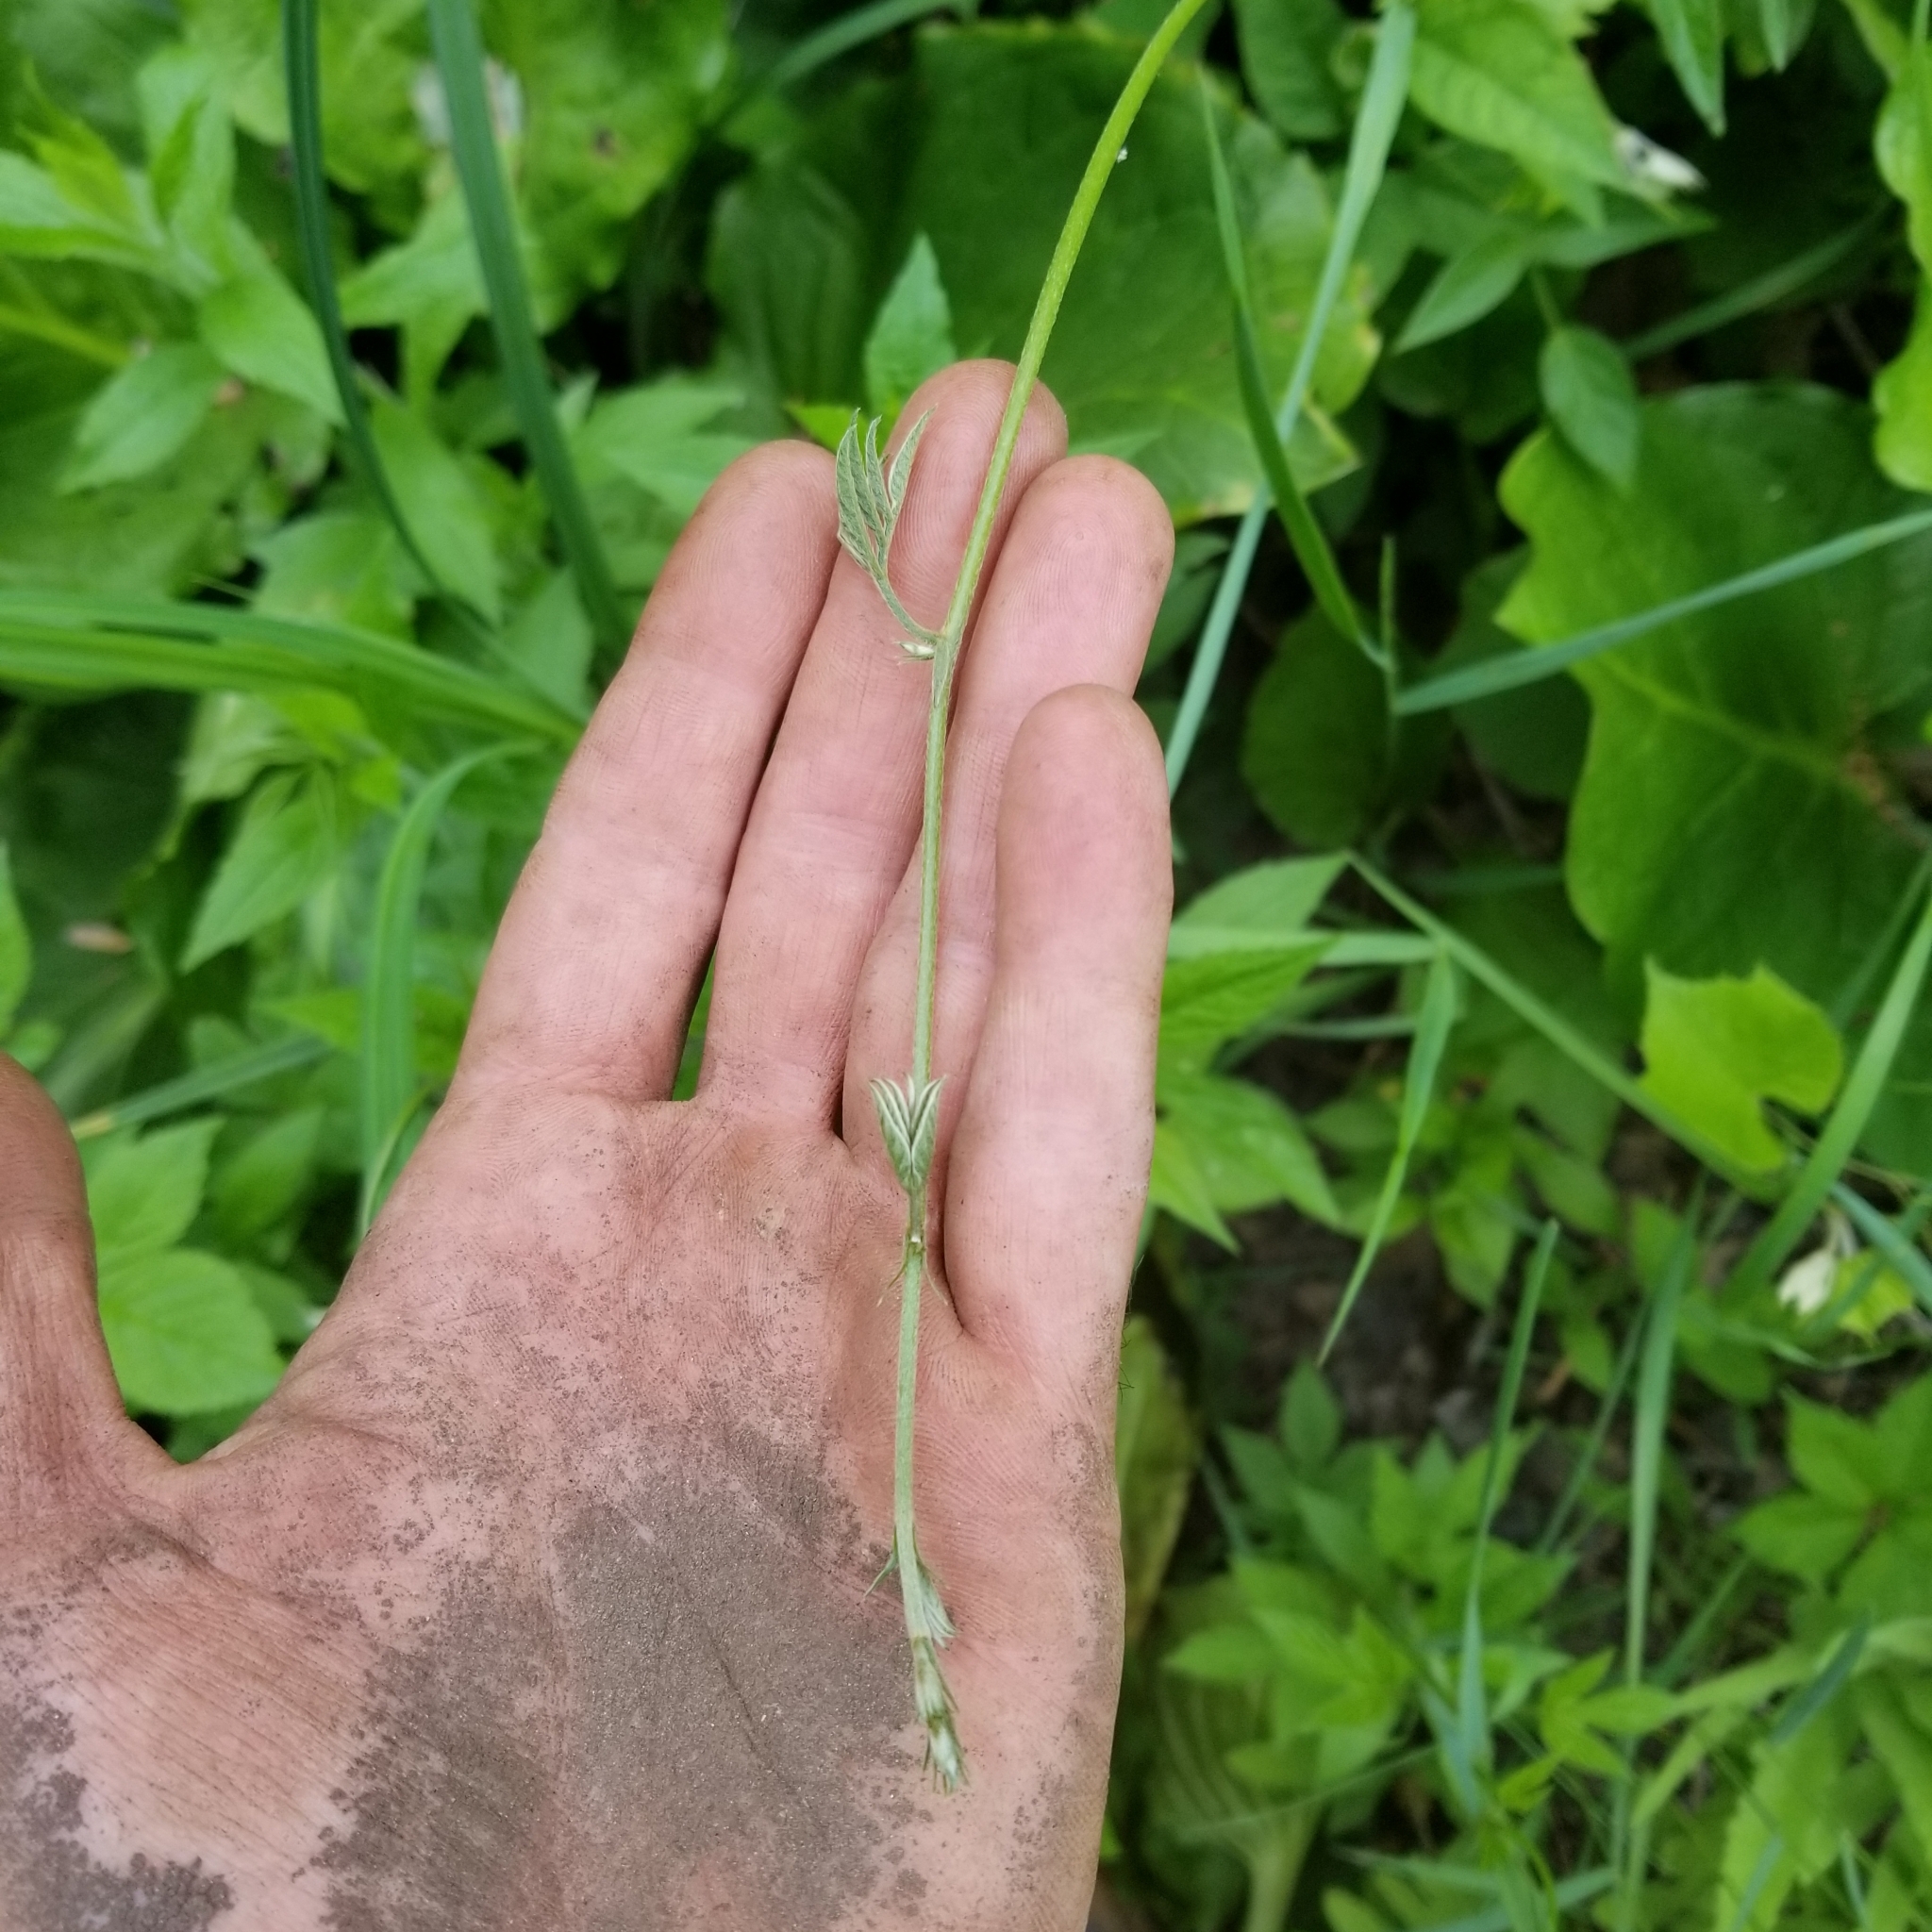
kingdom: Plantae
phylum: Tracheophyta
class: Magnoliopsida
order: Fabales
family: Fabaceae
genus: Apios
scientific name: Apios americana
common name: American potato-bean
